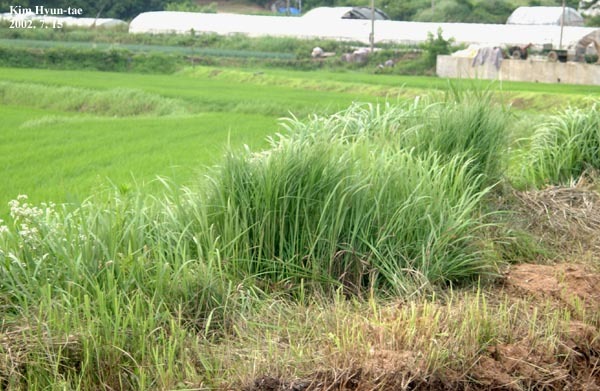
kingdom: Animalia
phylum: Chordata
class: Aves
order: Gruiformes
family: Rallidae
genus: Gallicrex
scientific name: Gallicrex cinerea
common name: Watercock
